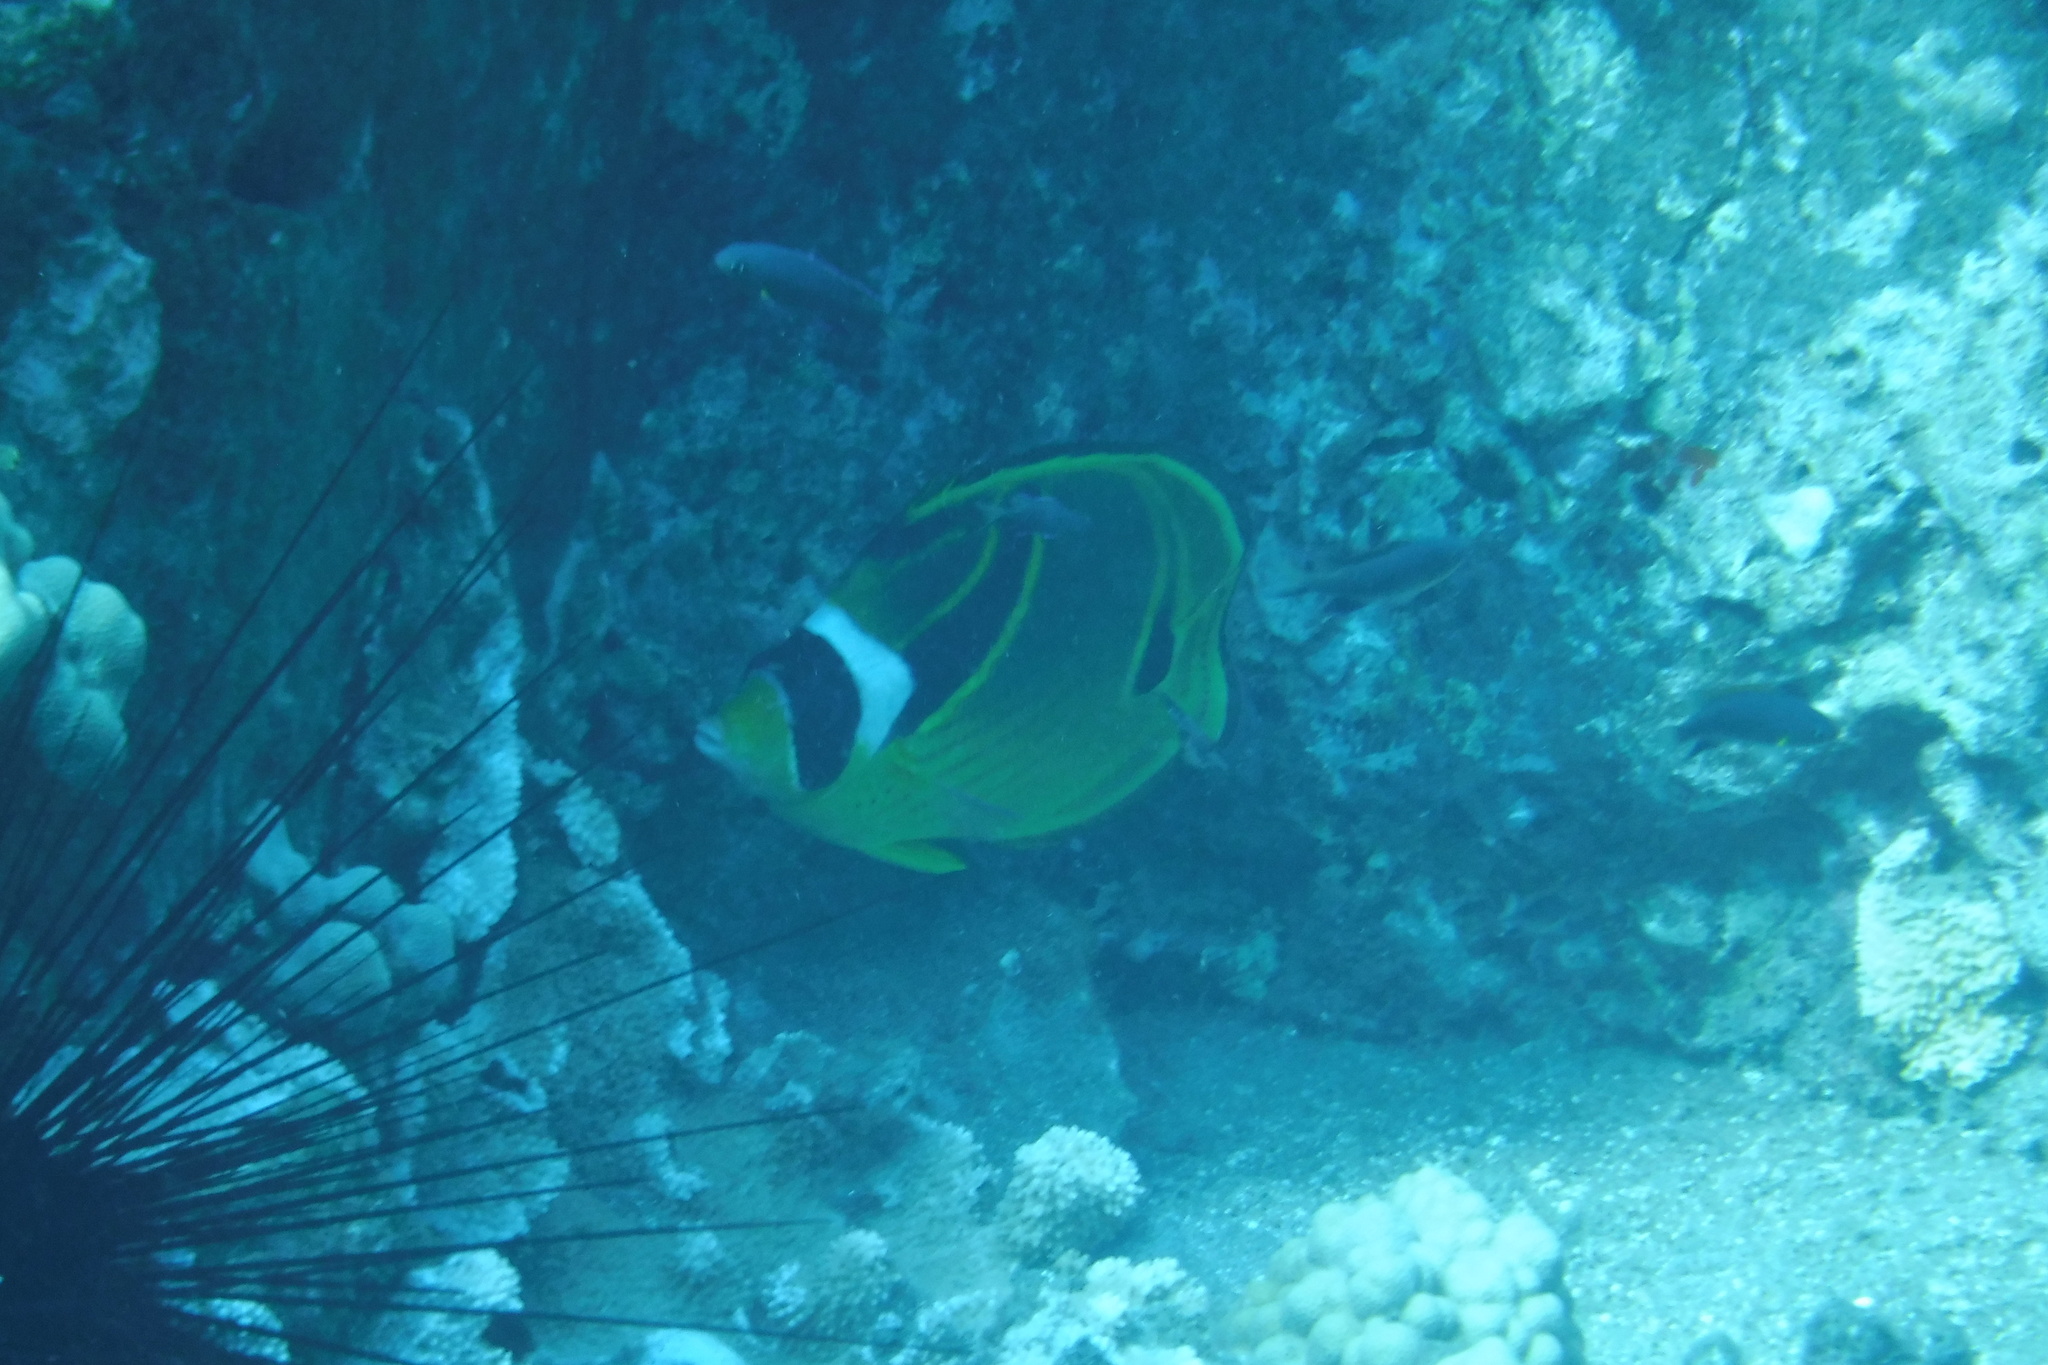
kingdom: Animalia
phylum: Chordata
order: Perciformes
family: Chaetodontidae
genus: Chaetodon
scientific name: Chaetodon lunula
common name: Raccoon butterflyfish
